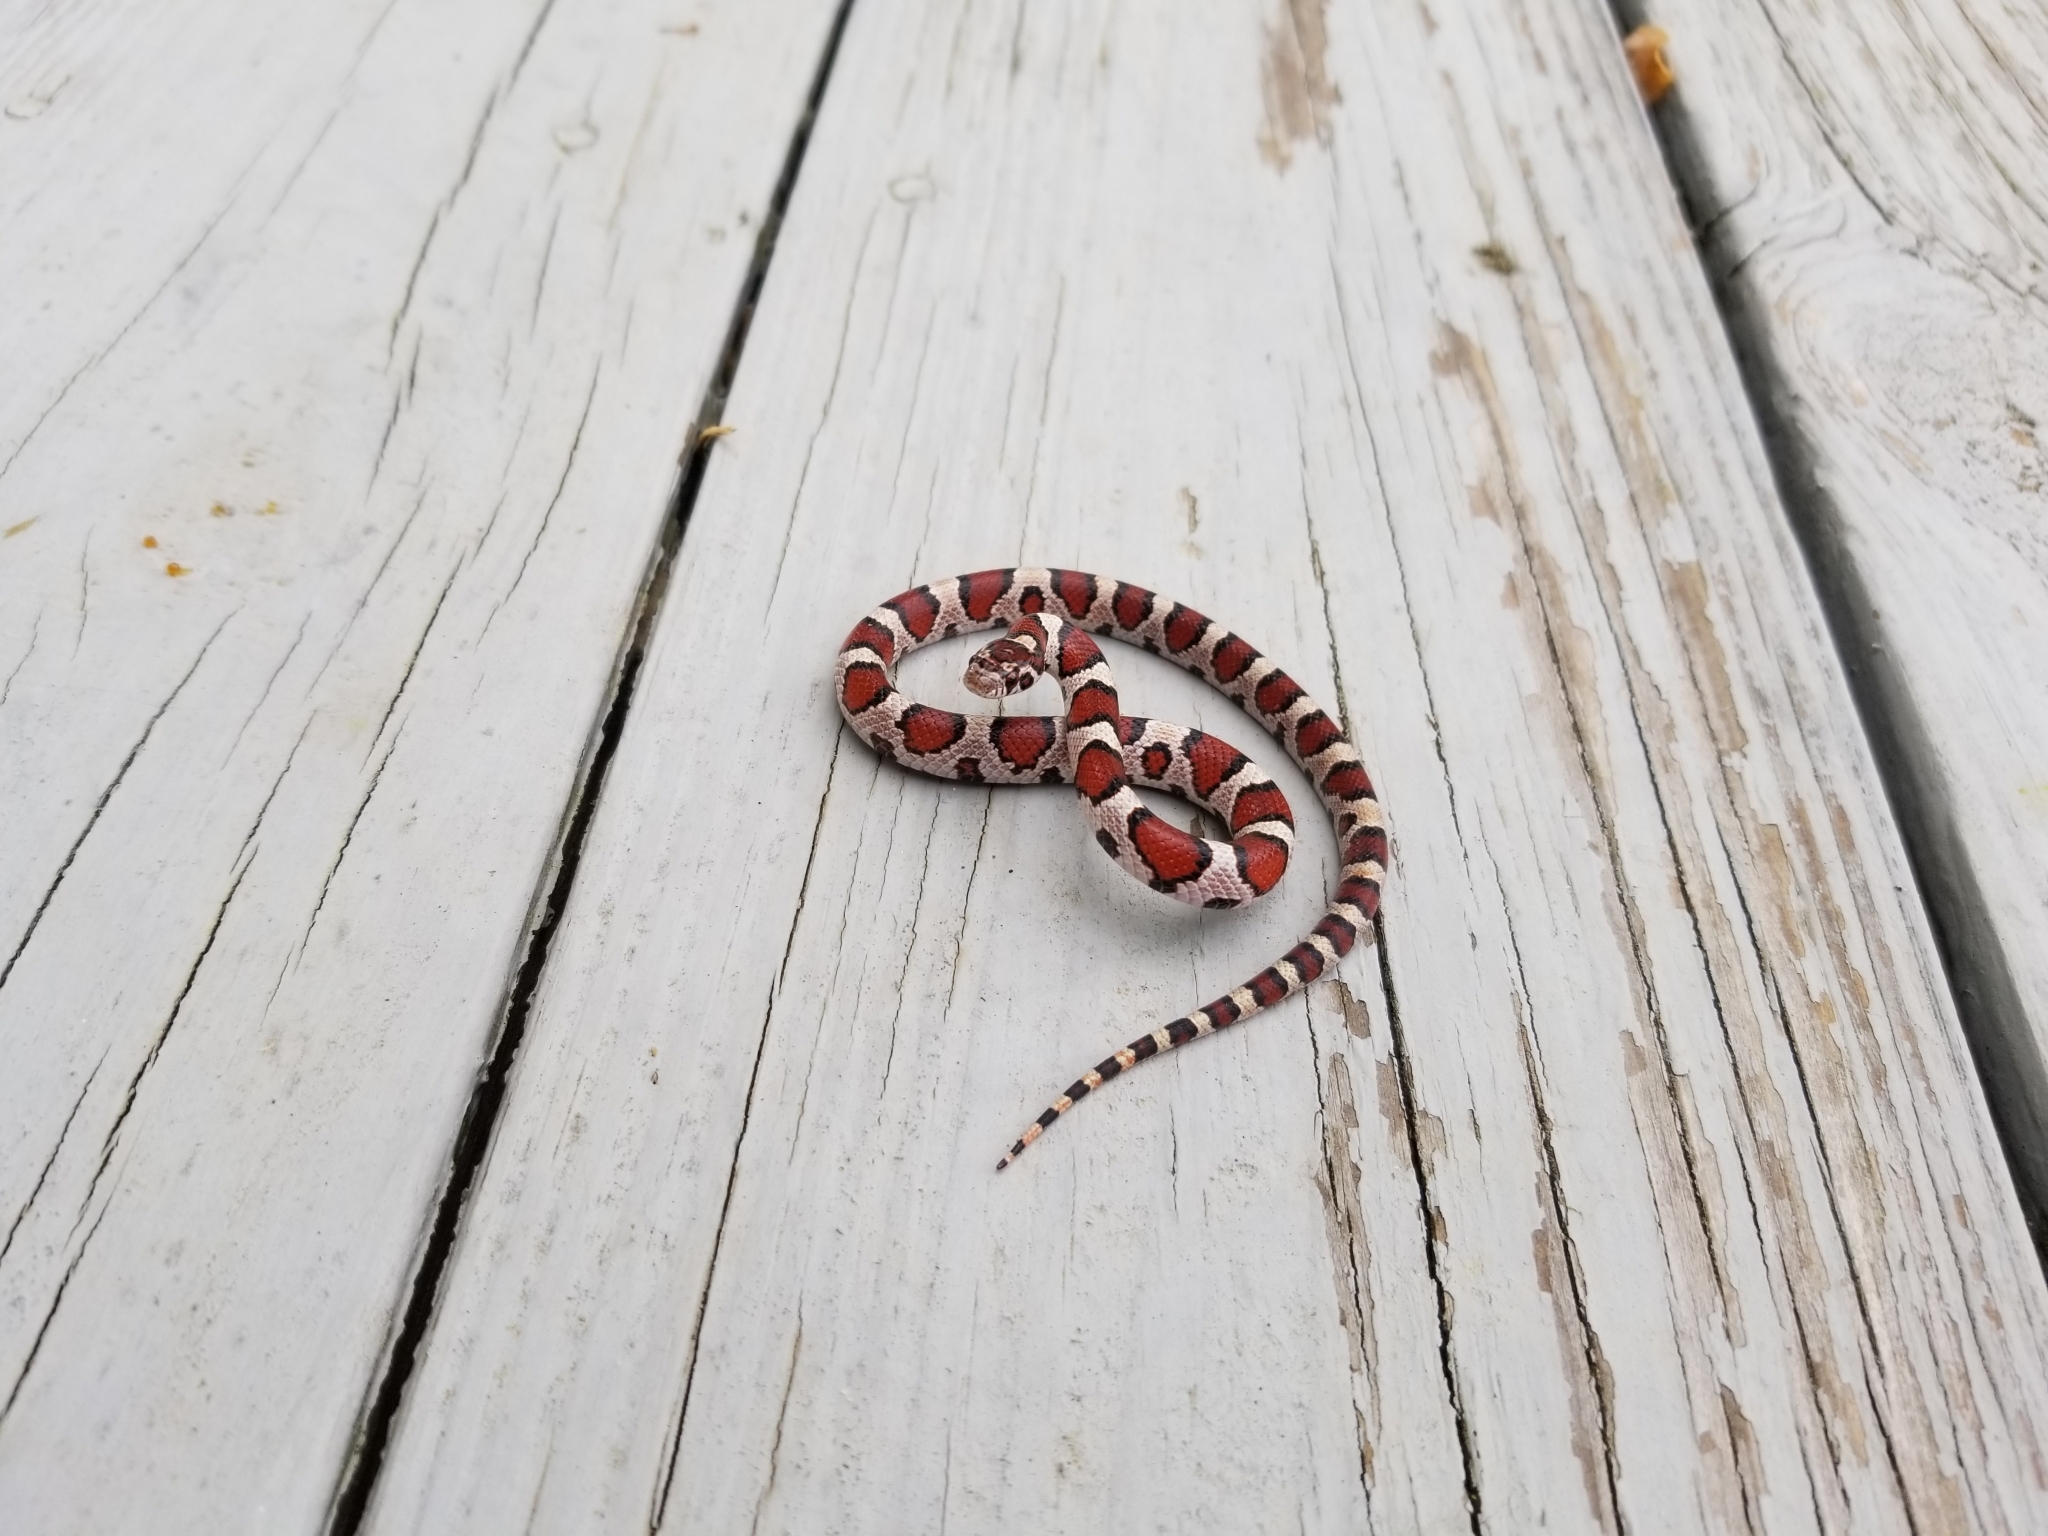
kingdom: Animalia
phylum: Chordata
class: Squamata
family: Colubridae
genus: Lampropeltis
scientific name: Lampropeltis triangulum
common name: Eastern milksnake
